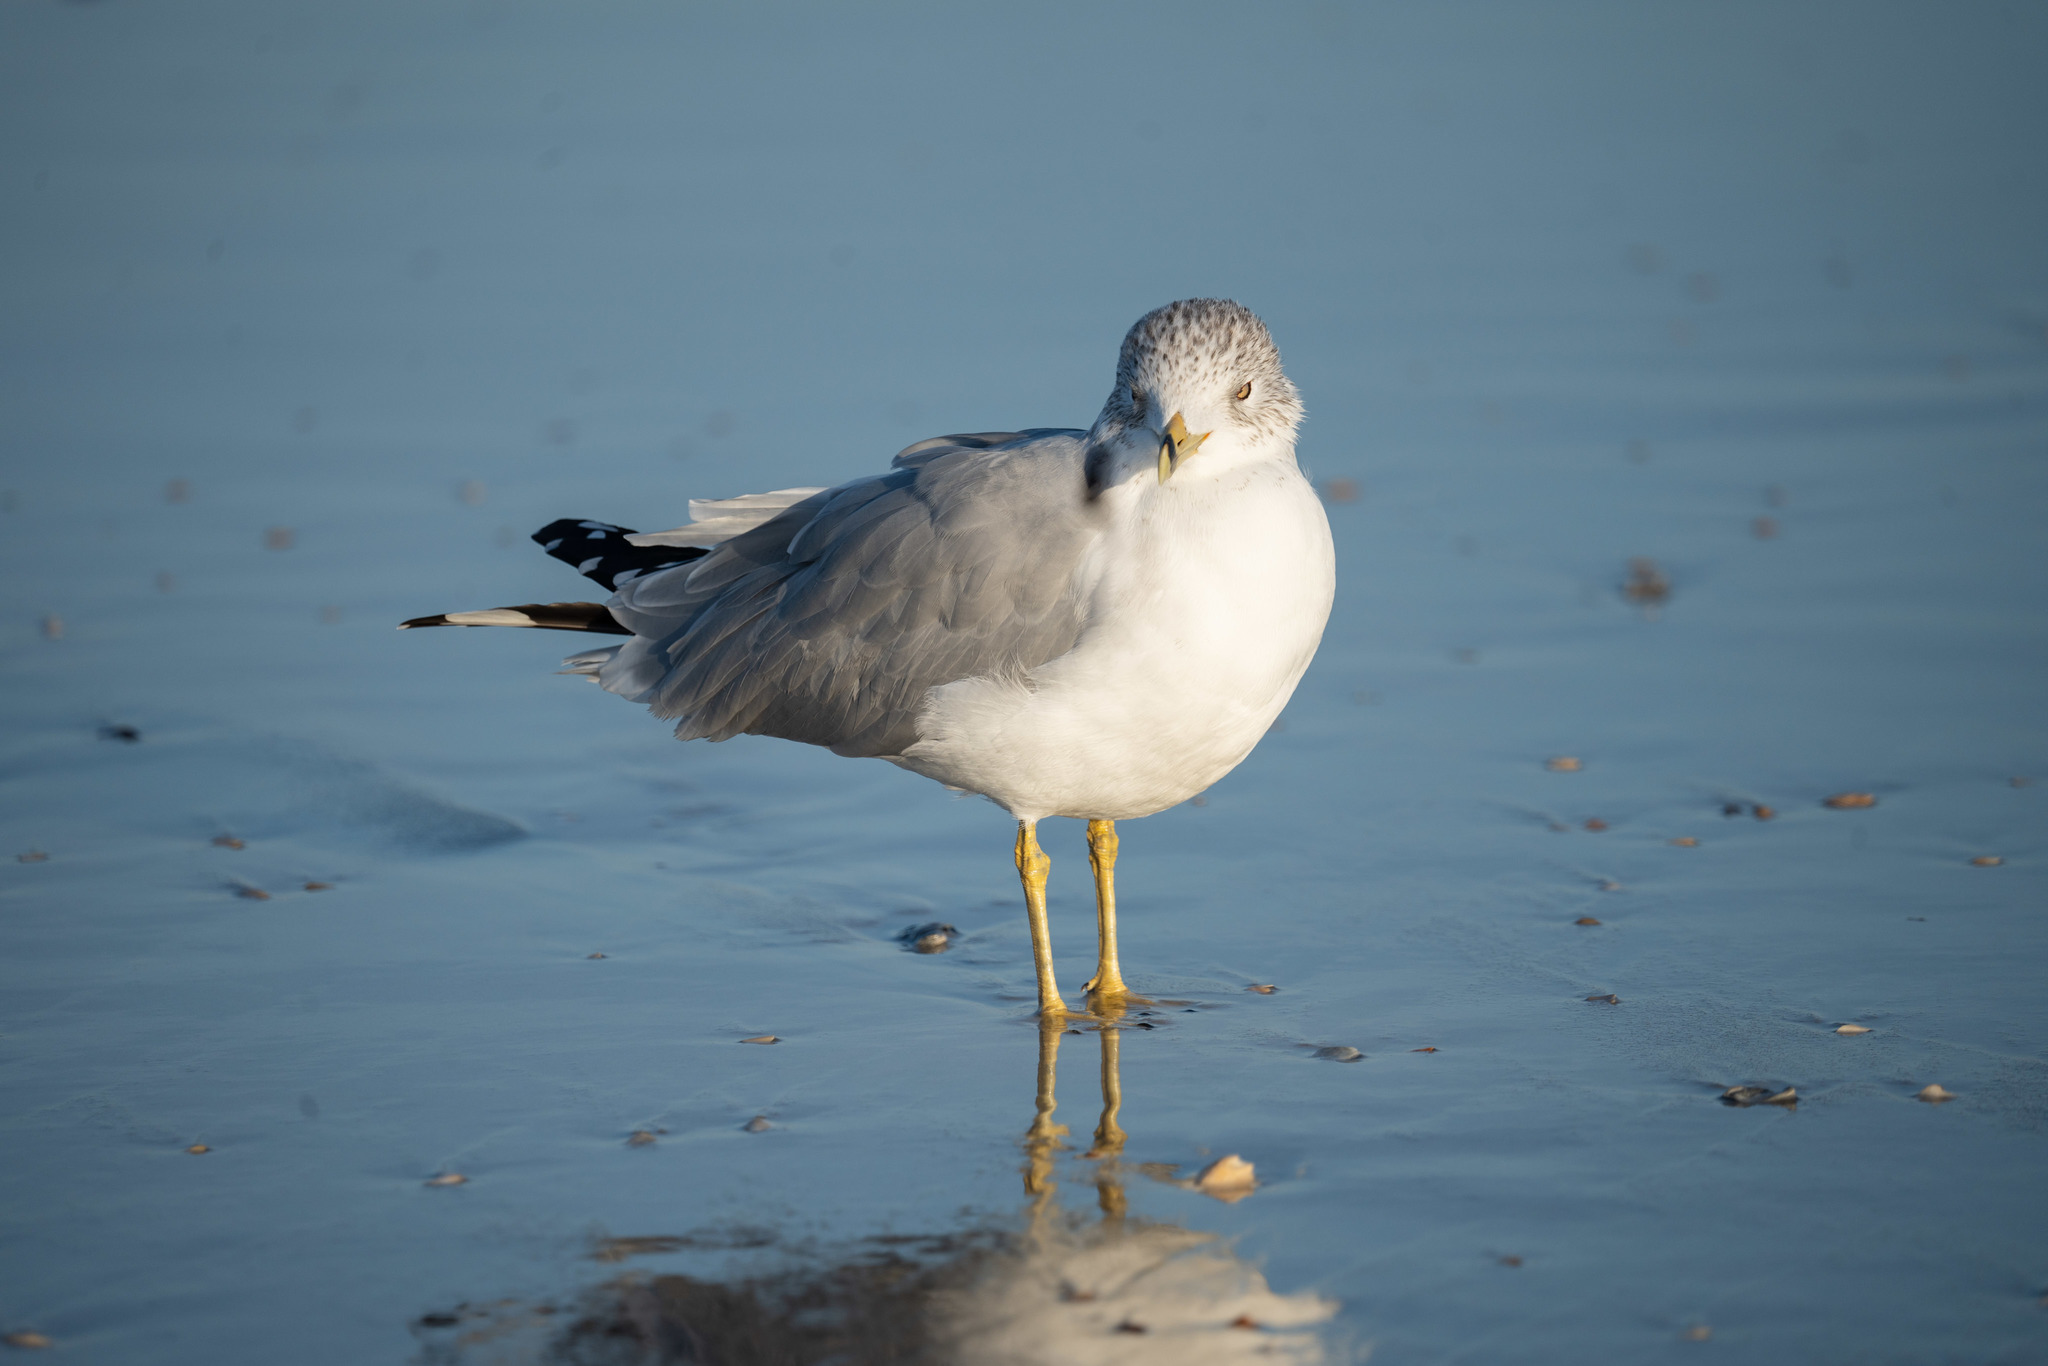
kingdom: Animalia
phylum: Chordata
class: Aves
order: Charadriiformes
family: Laridae
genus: Larus
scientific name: Larus delawarensis
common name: Ring-billed gull
